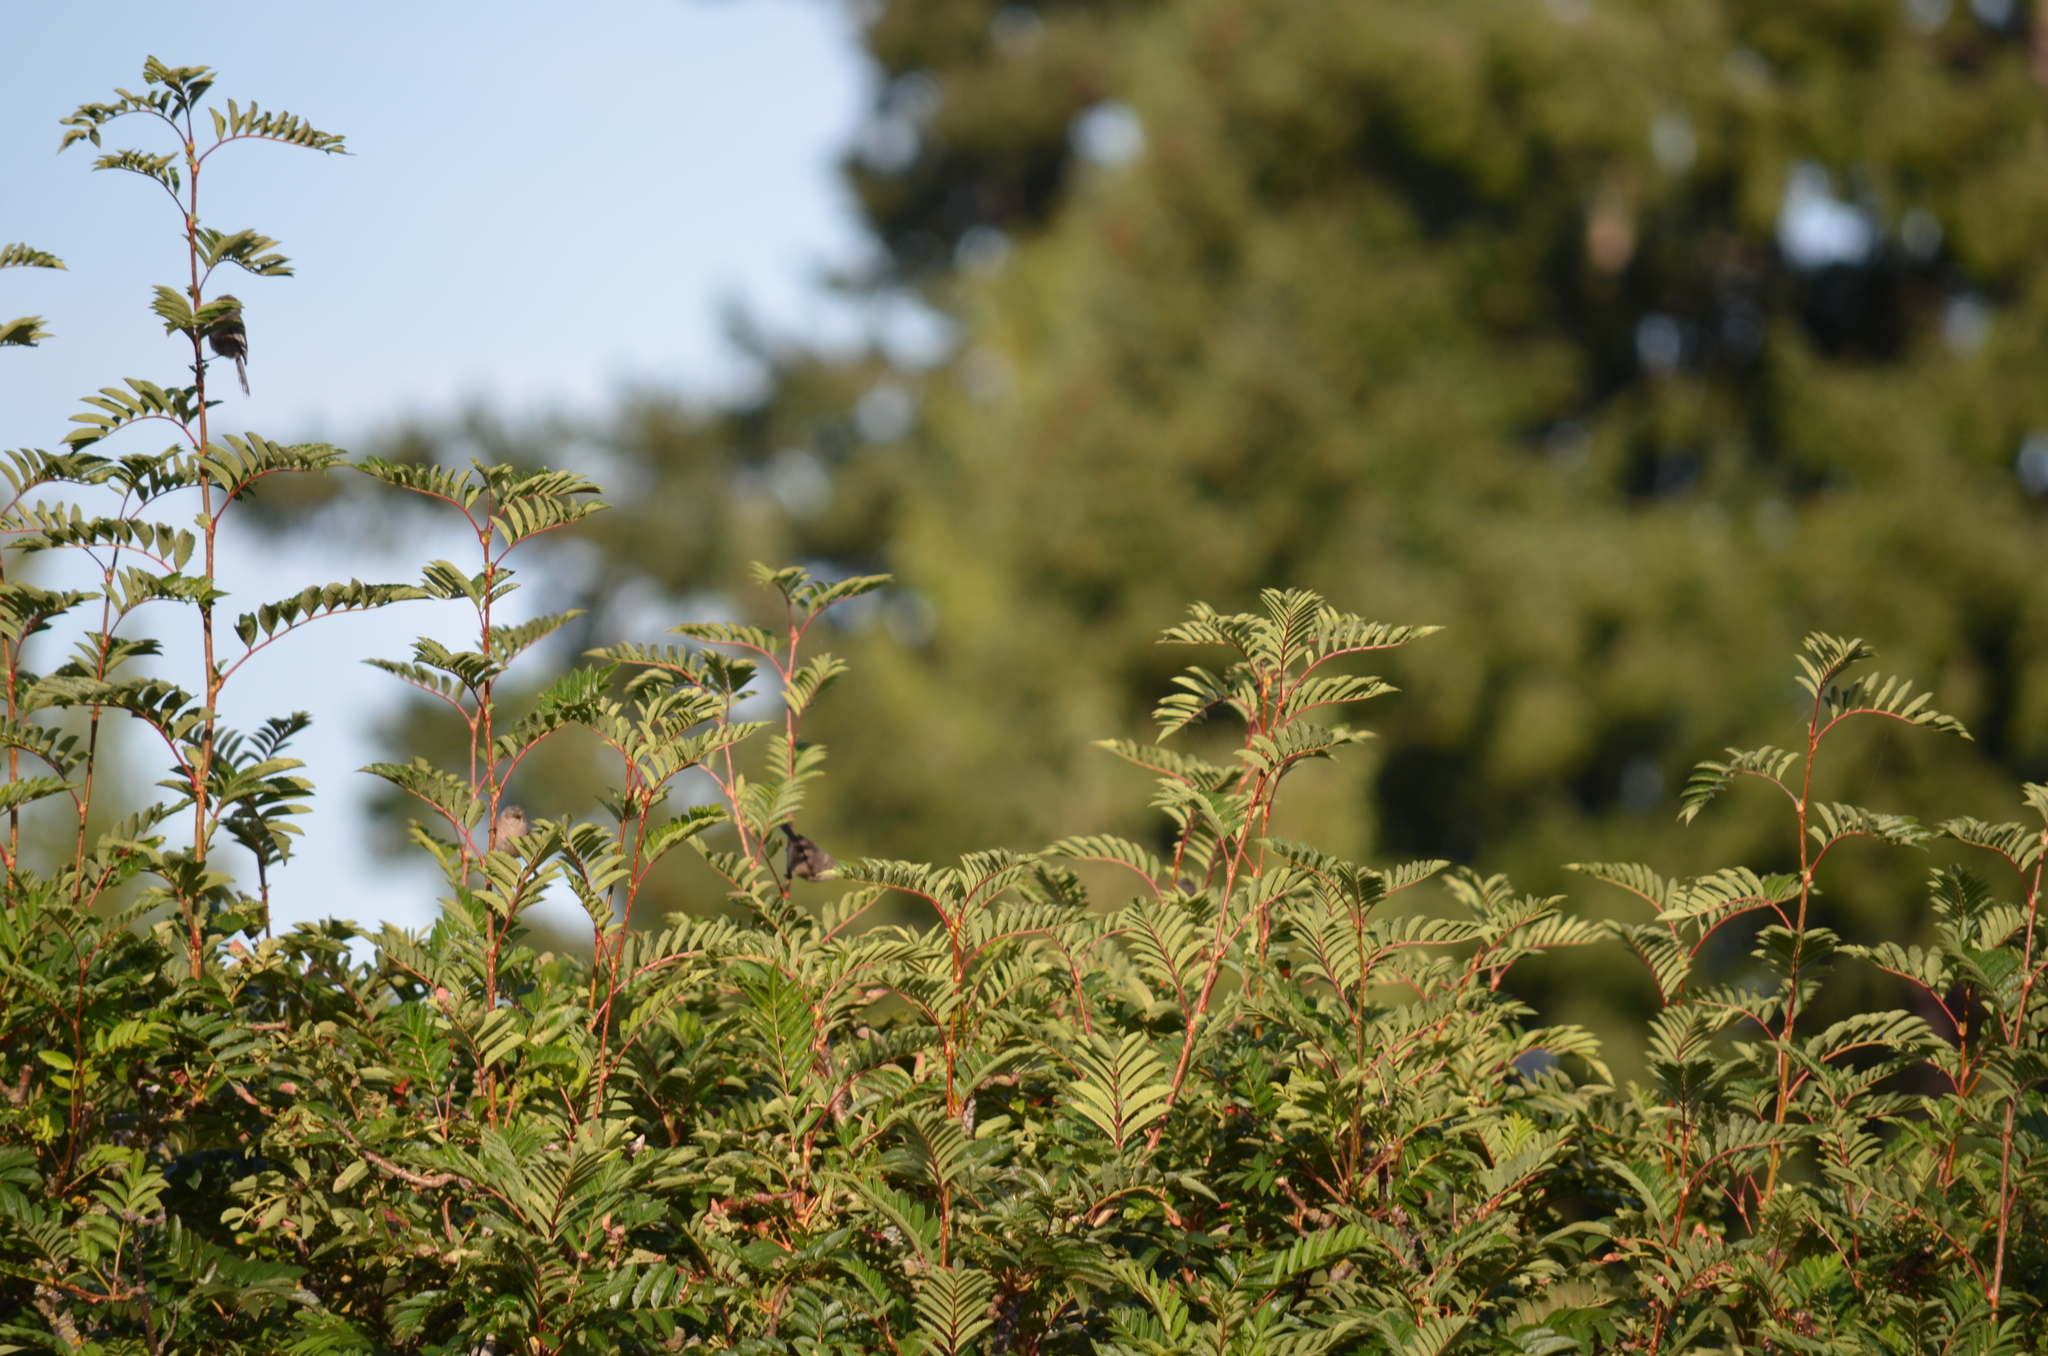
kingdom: Animalia
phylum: Chordata
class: Aves
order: Passeriformes
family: Aegithalidae
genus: Psaltriparus
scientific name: Psaltriparus minimus
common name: American bushtit
